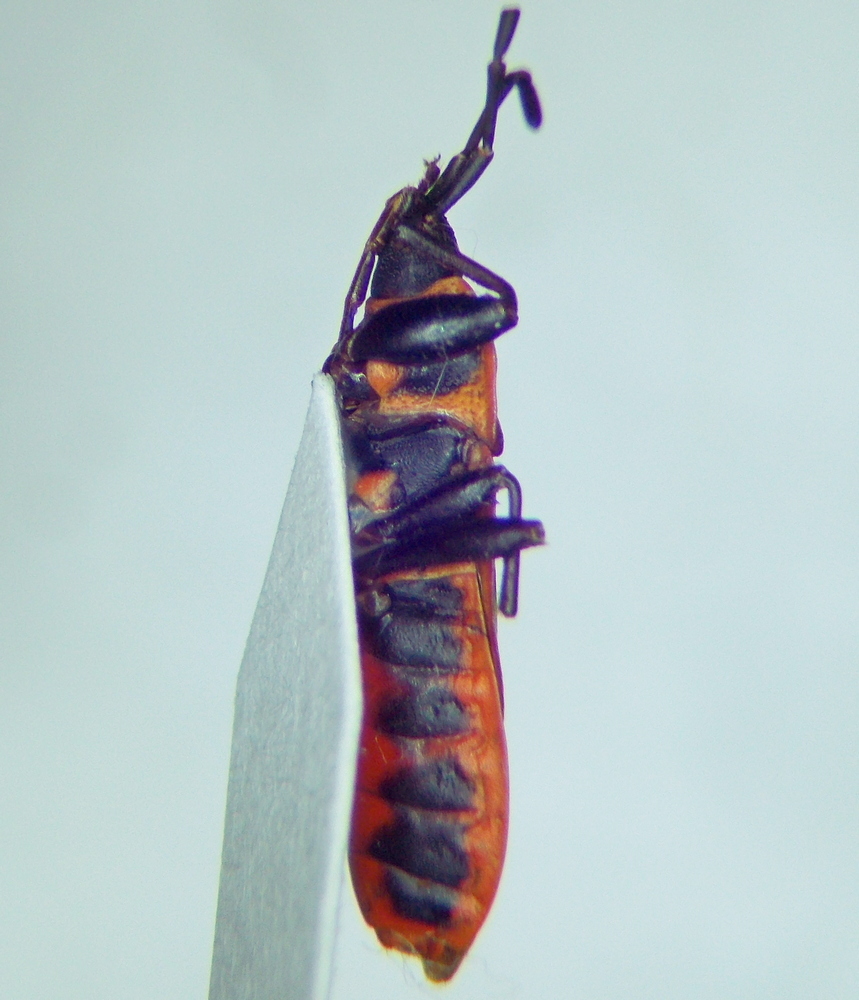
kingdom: Animalia
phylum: Arthropoda
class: Insecta
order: Hemiptera
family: Pyrrhocoridae
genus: Scantius
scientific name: Scantius aegyptius
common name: Red bug
